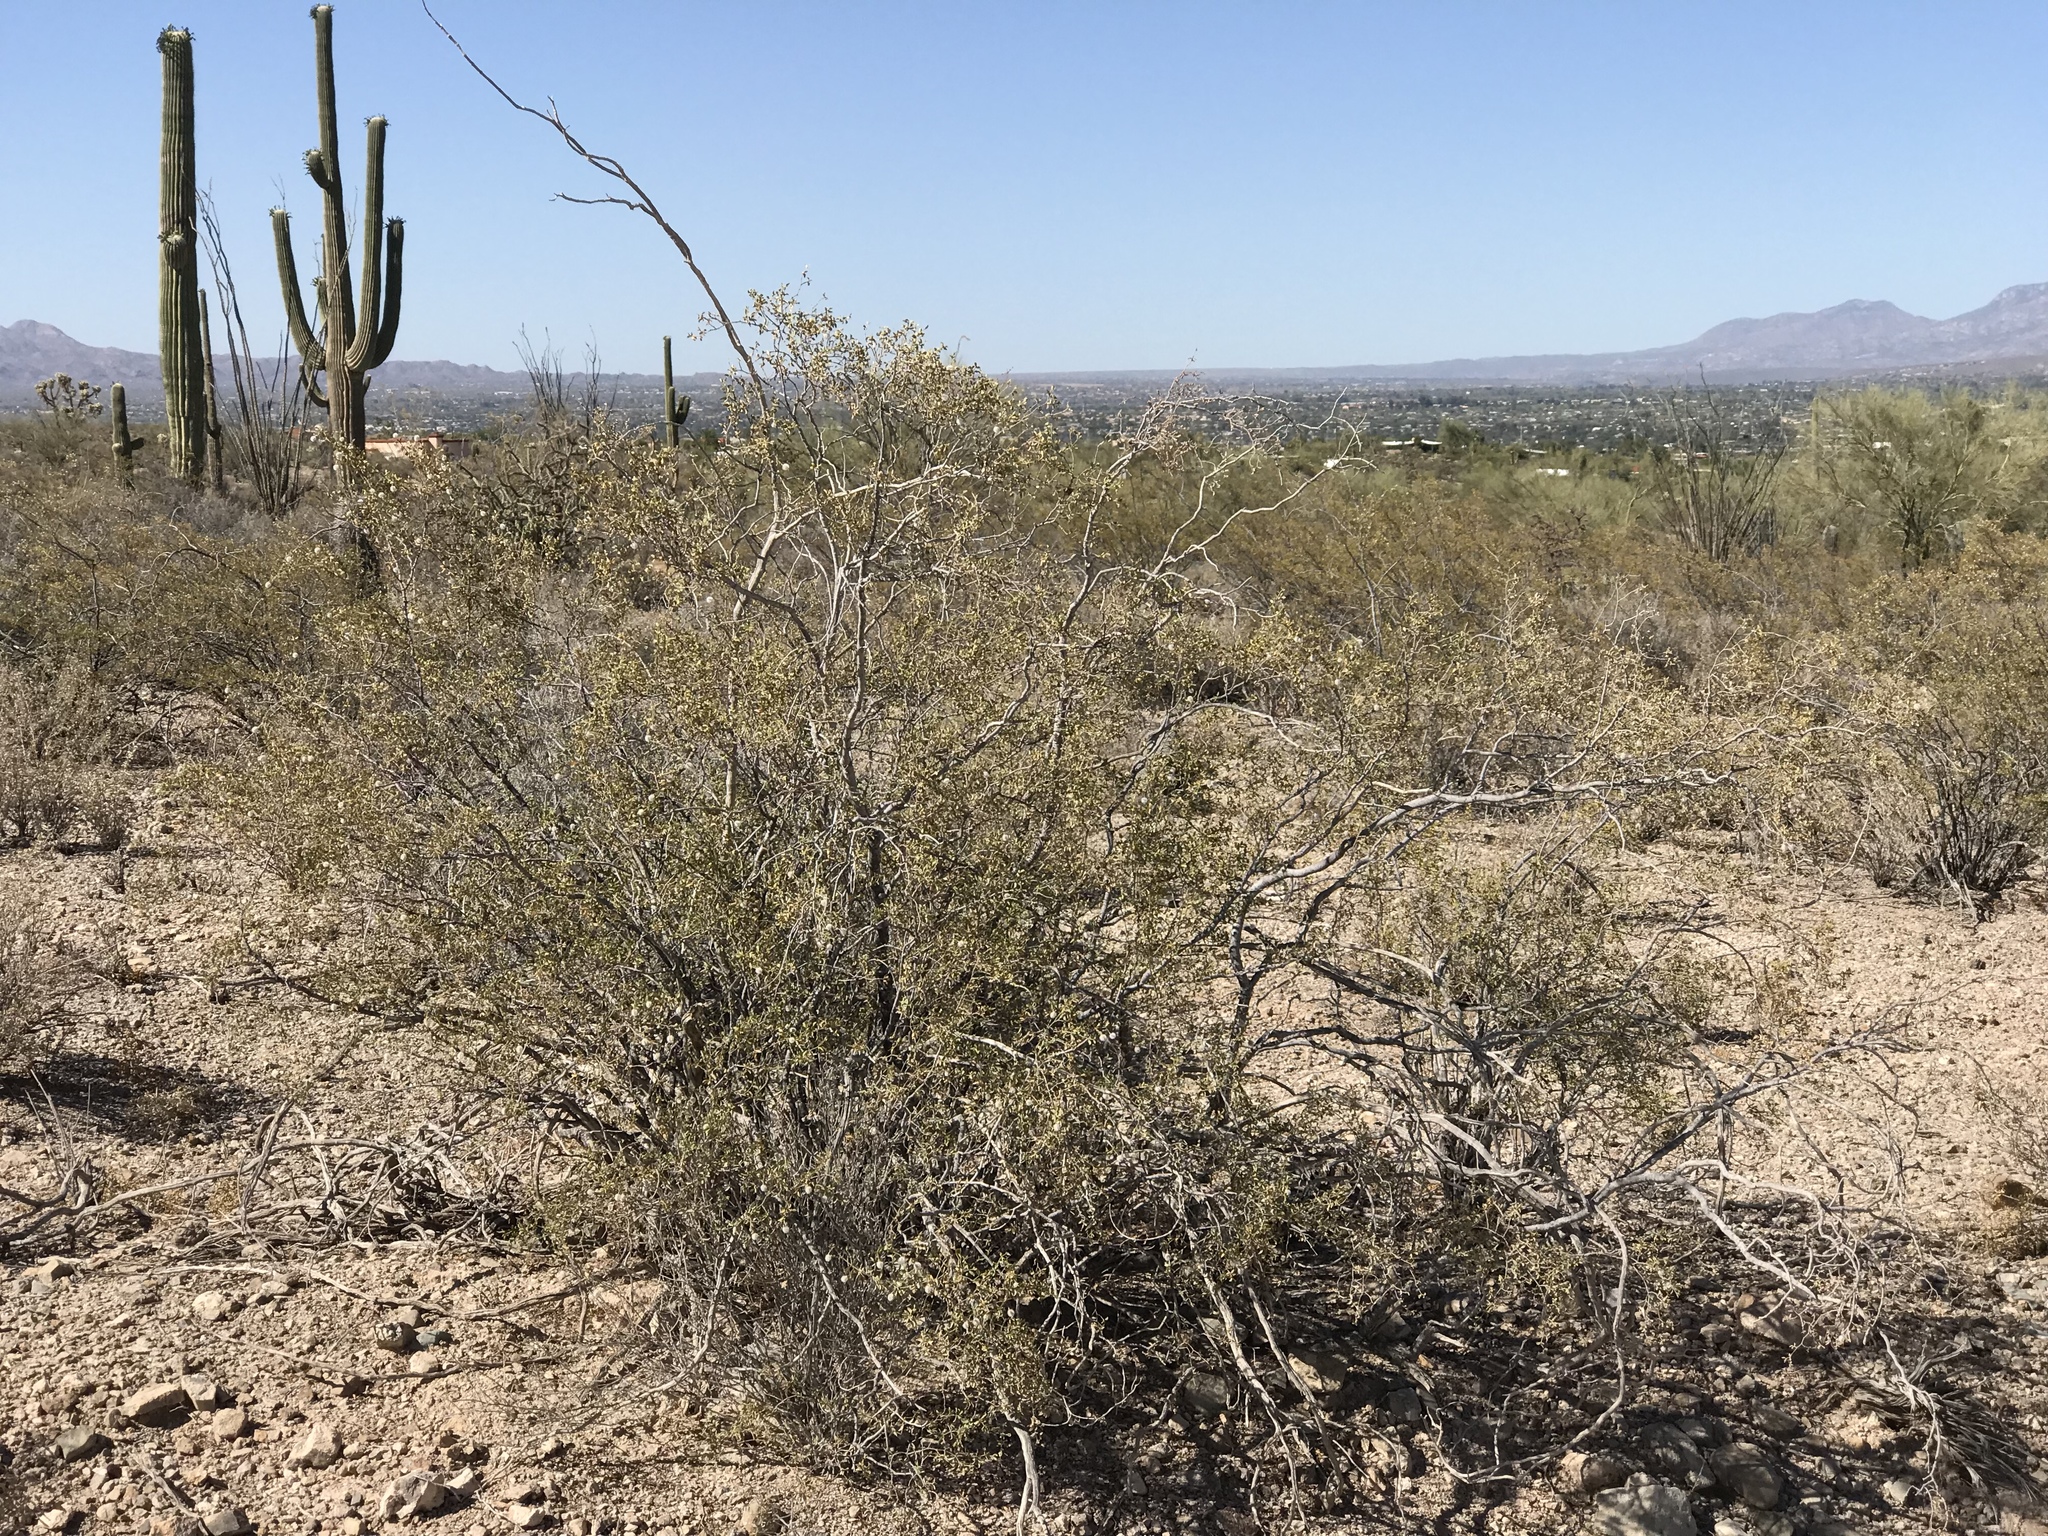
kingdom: Plantae
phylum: Tracheophyta
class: Magnoliopsida
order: Zygophyllales
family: Zygophyllaceae
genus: Larrea
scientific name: Larrea tridentata
